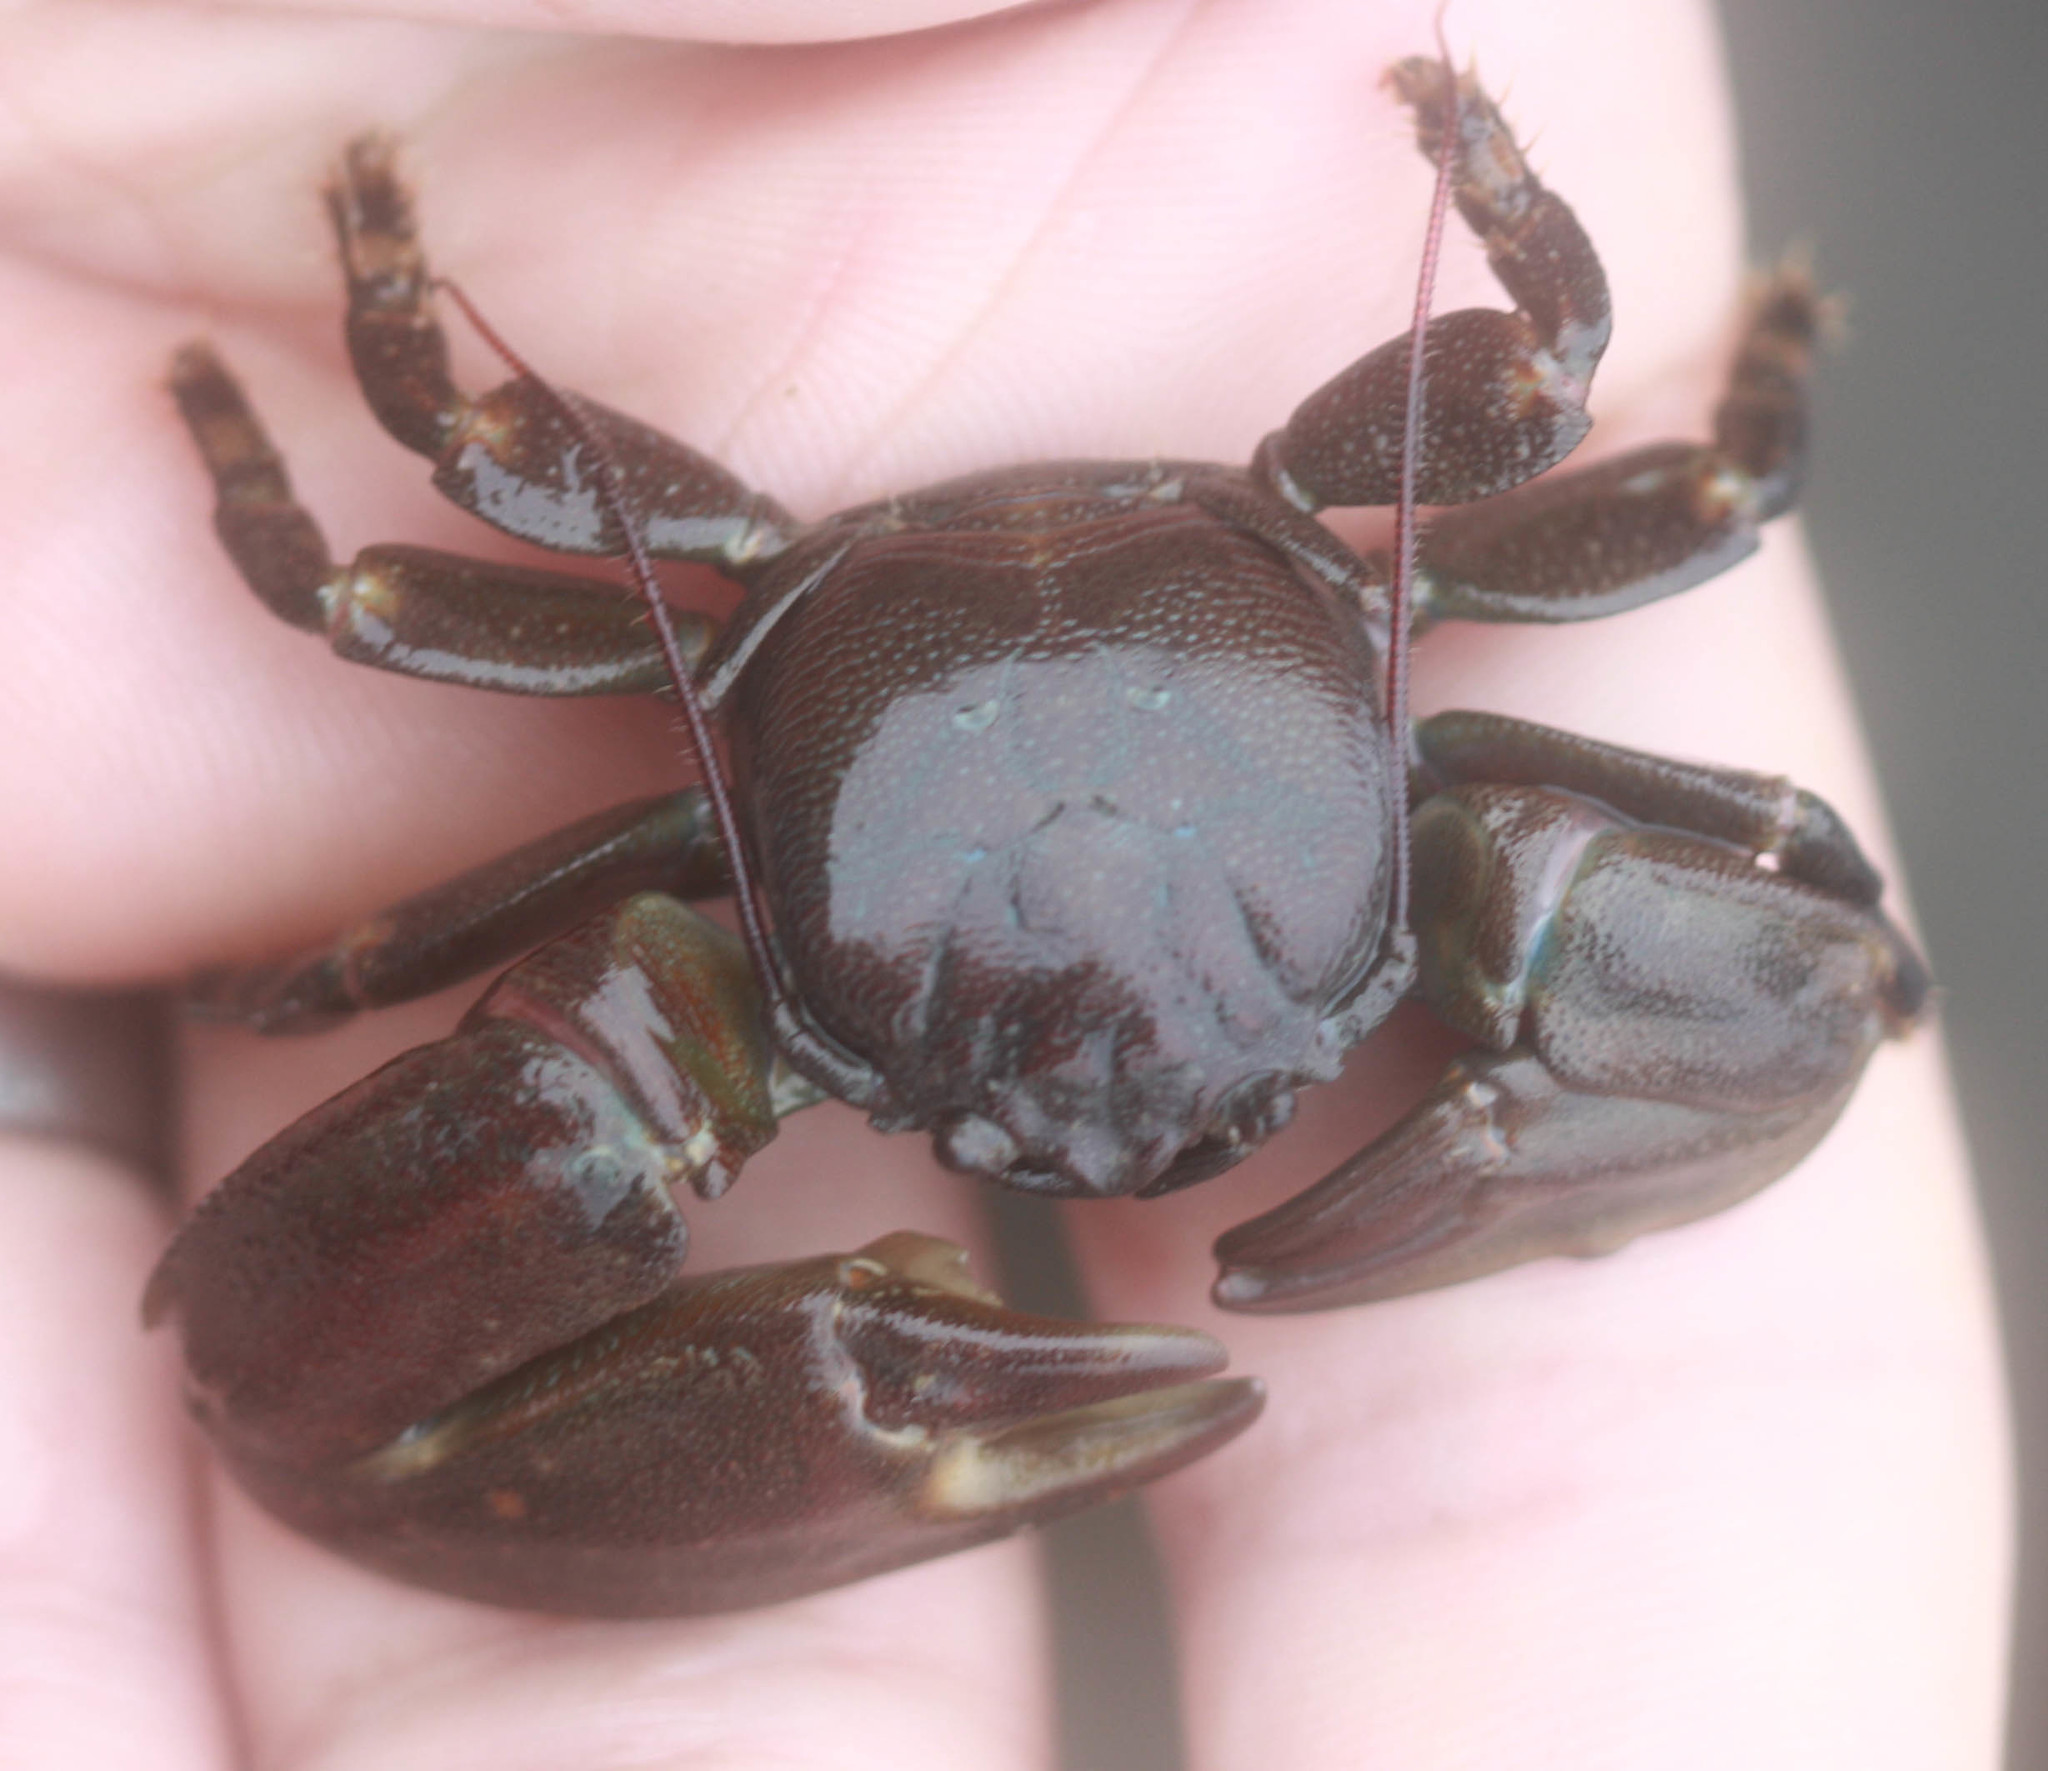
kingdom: Animalia
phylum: Arthropoda
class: Malacostraca
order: Decapoda
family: Porcellanidae
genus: Petrolisthes
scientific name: Petrolisthes cinctipes
